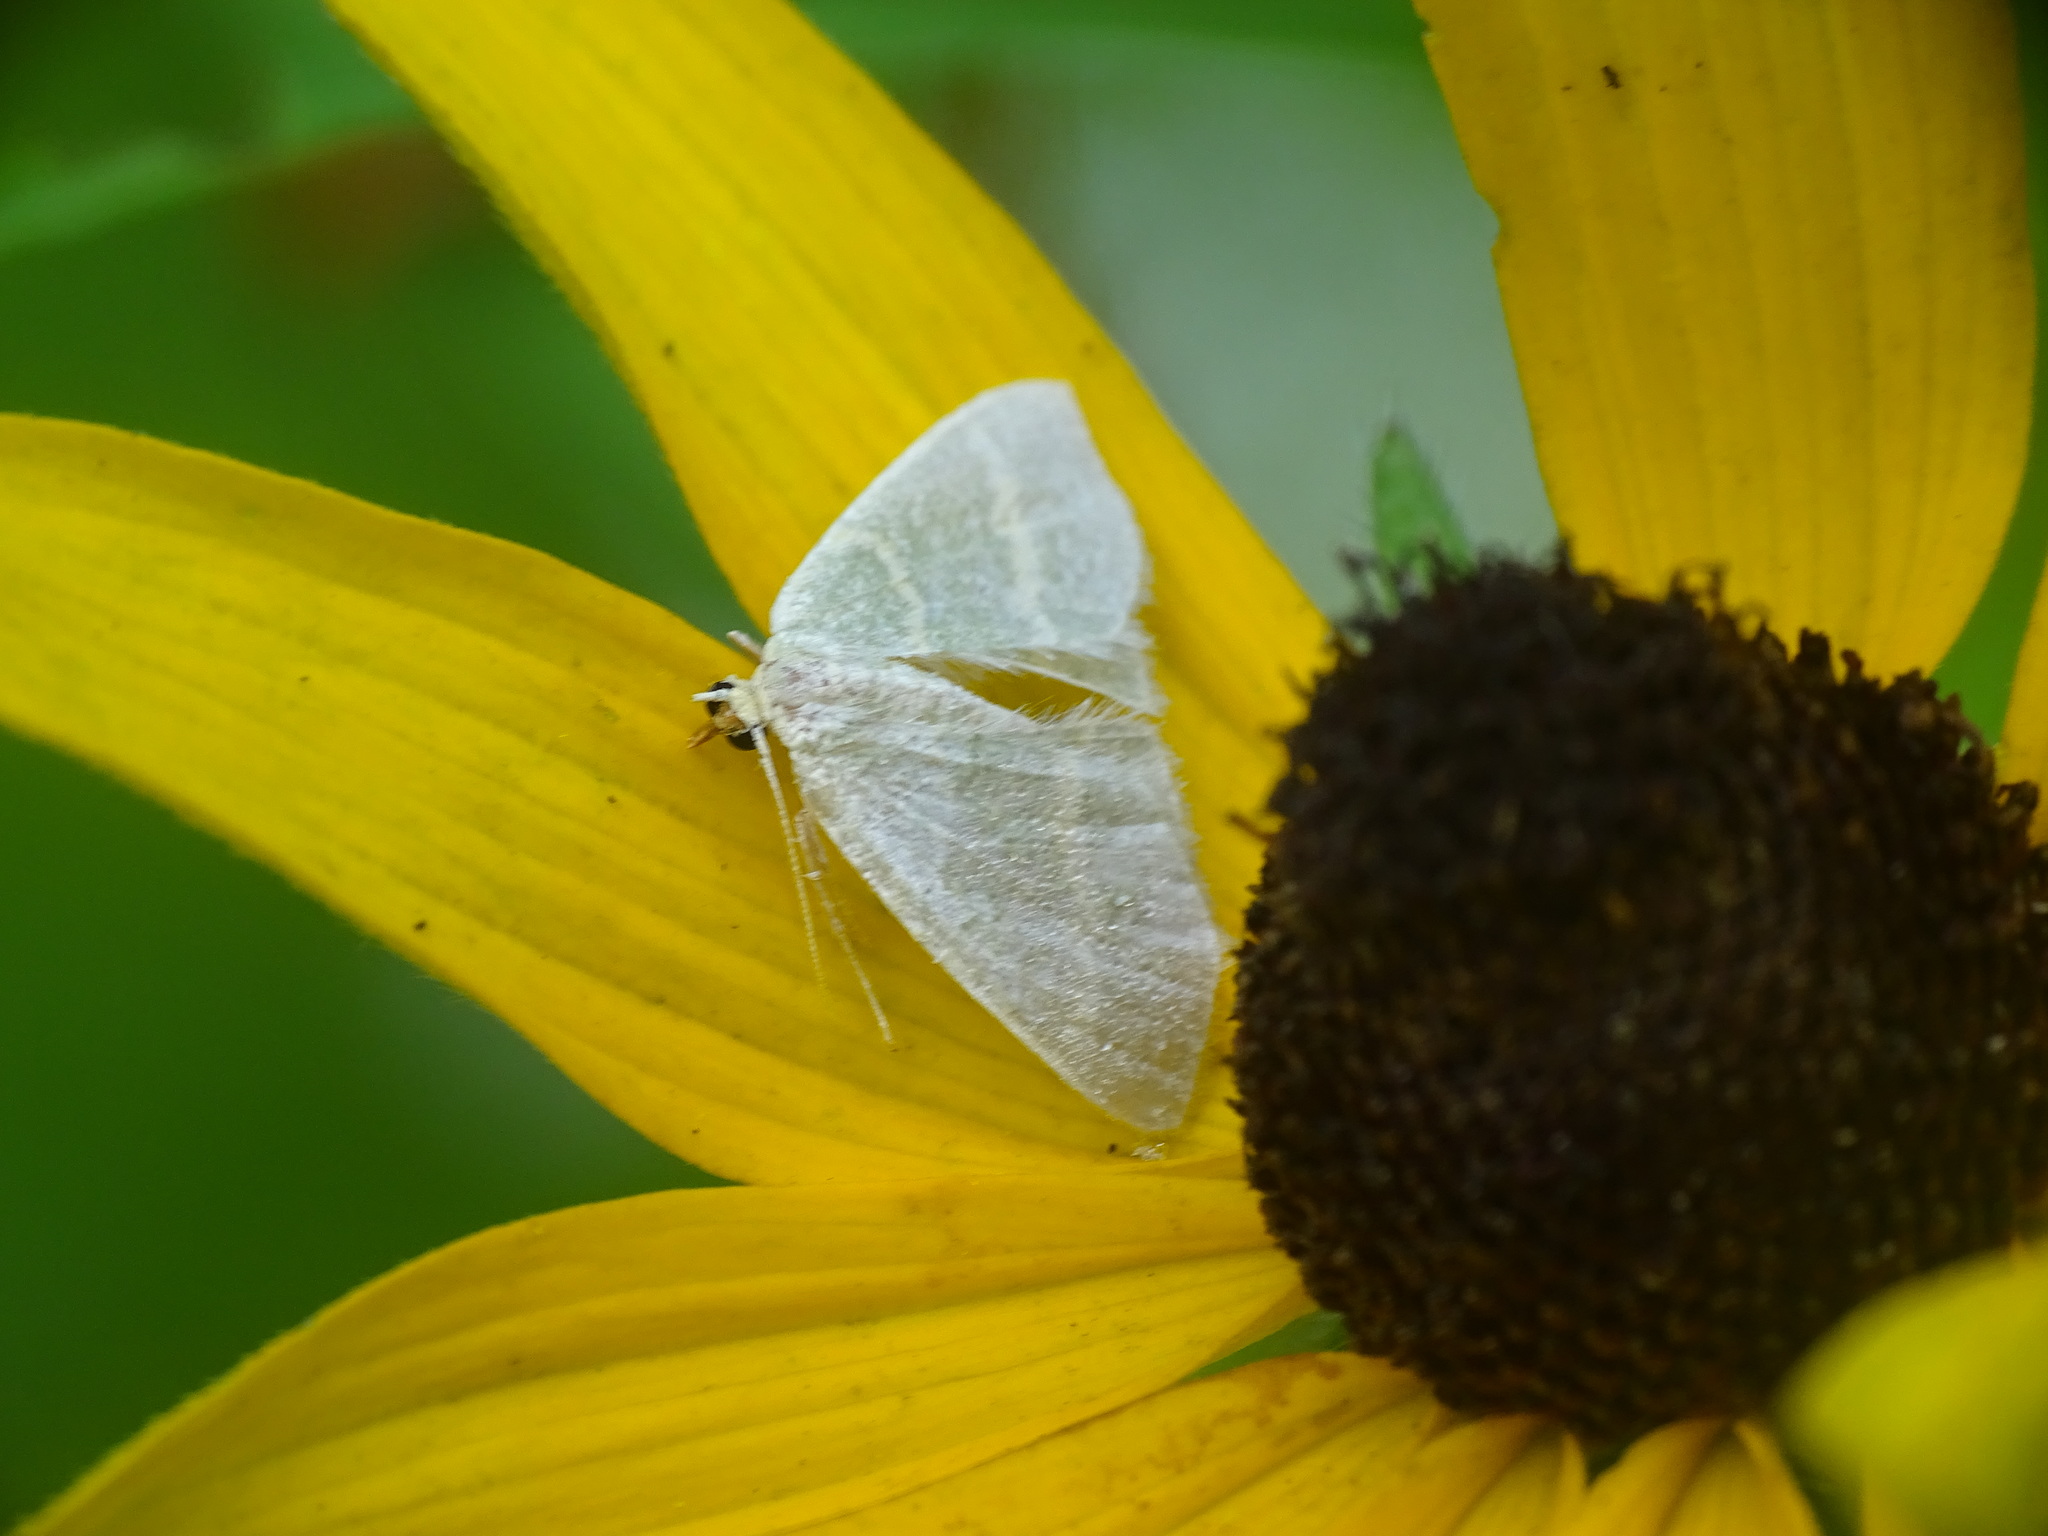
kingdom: Animalia
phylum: Arthropoda
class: Insecta
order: Lepidoptera
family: Geometridae
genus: Chlorochlamys
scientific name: Chlorochlamys chloroleucaria
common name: Blackberry looper
